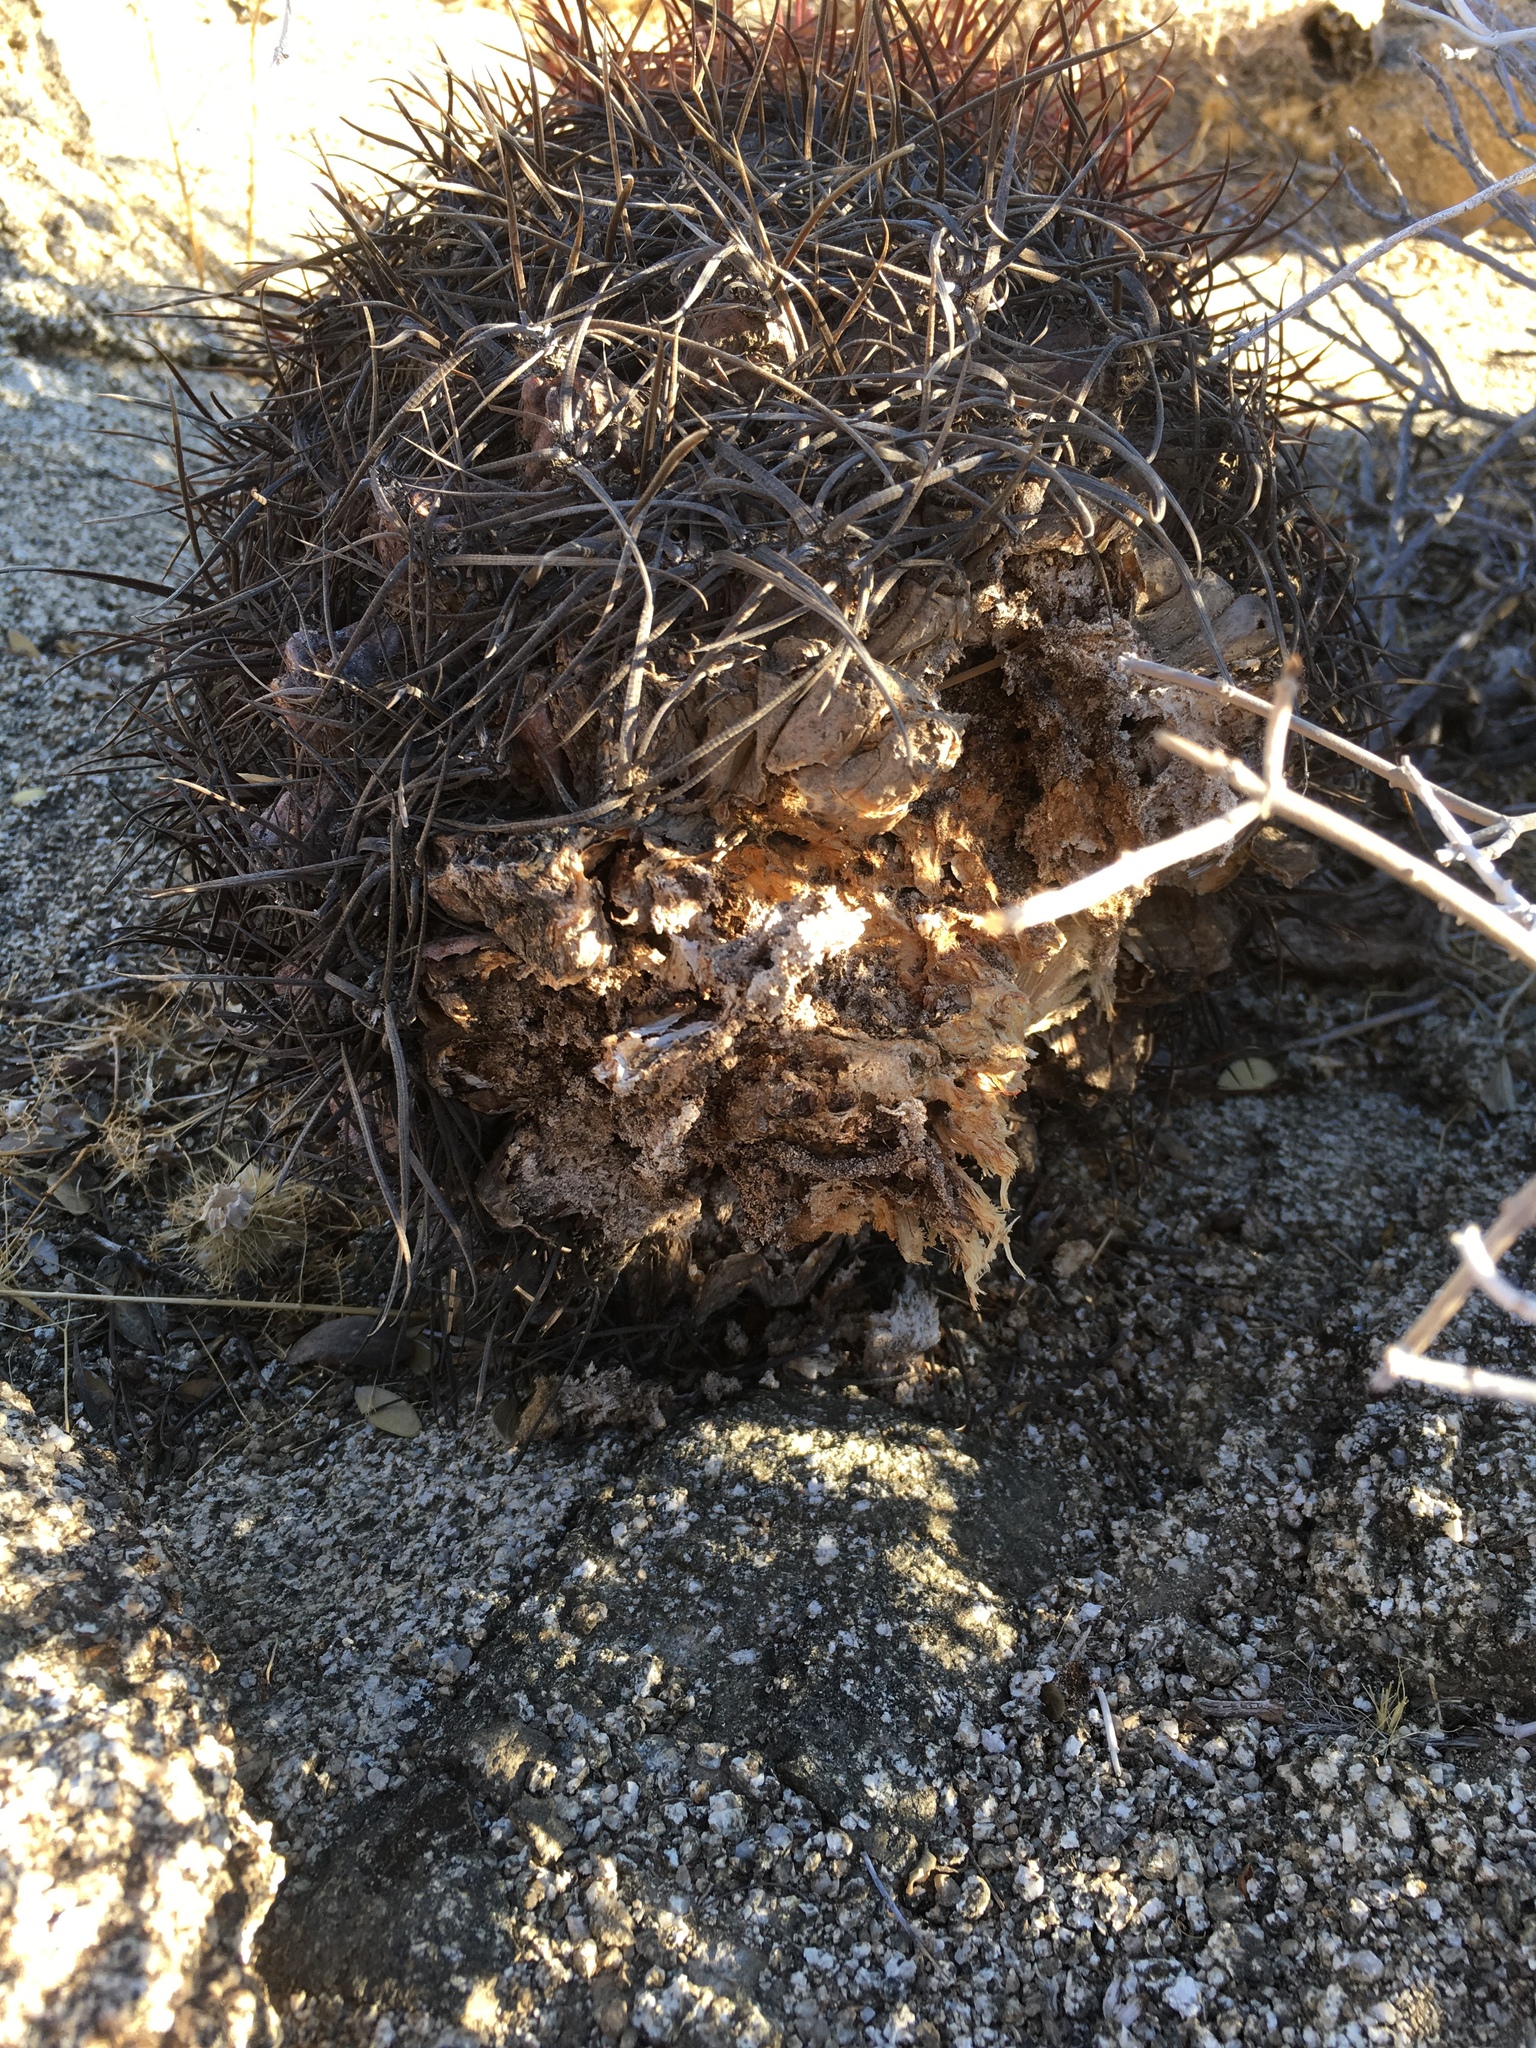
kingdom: Plantae
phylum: Tracheophyta
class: Magnoliopsida
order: Caryophyllales
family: Cactaceae
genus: Ferocactus
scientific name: Ferocactus cylindraceus
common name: California barrel cactus
